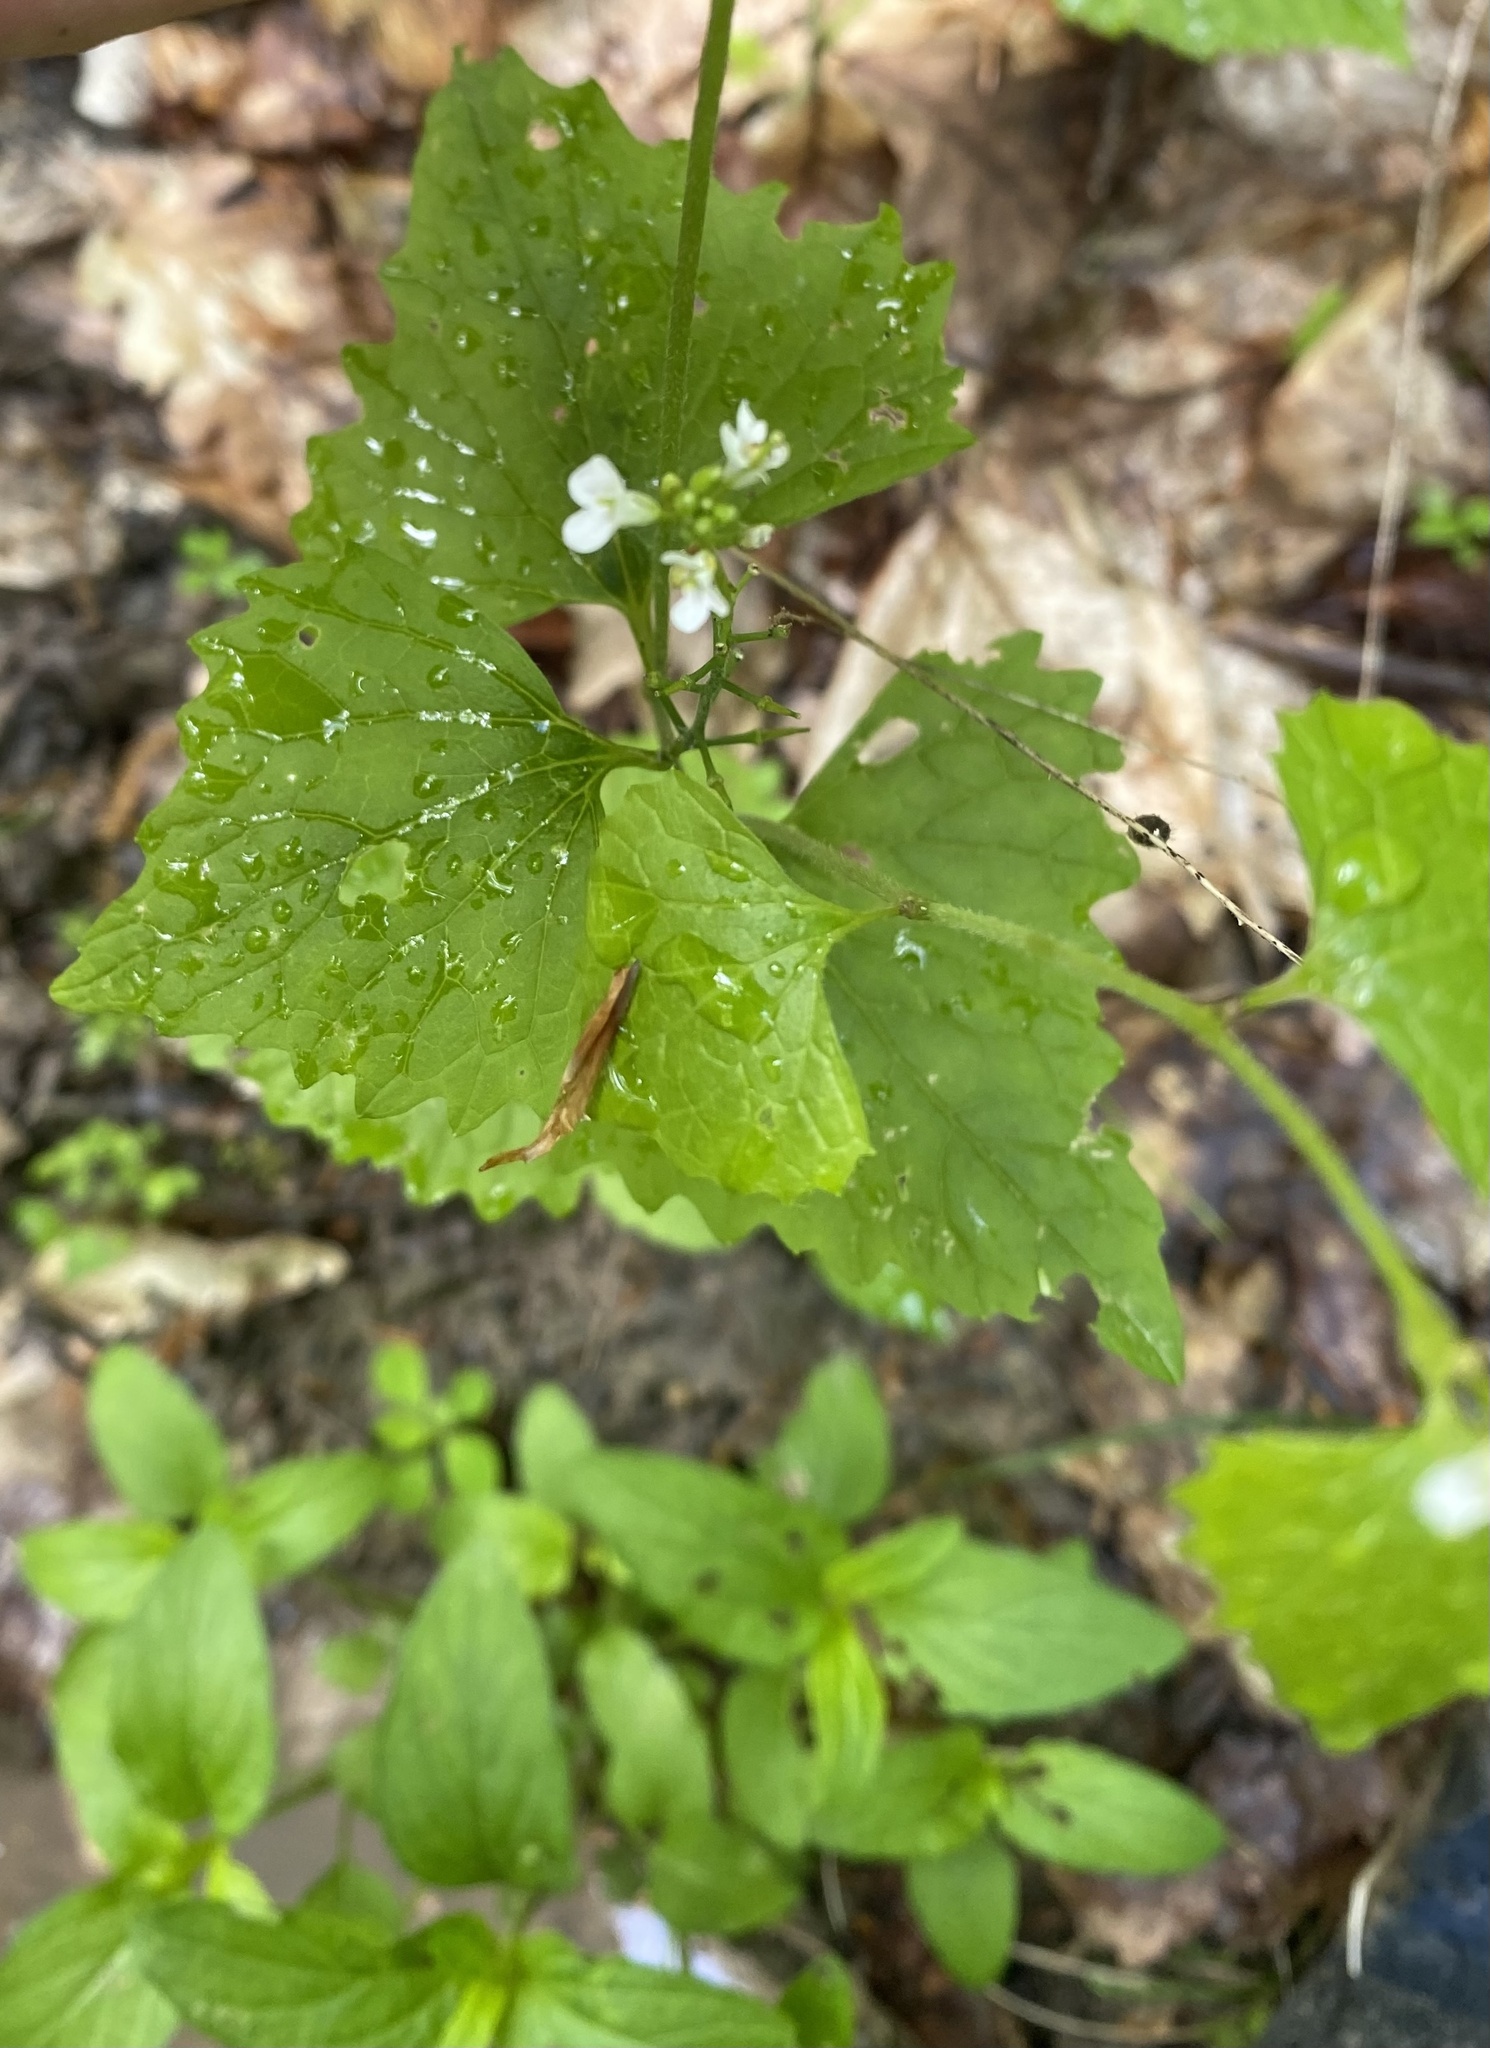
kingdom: Plantae
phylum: Tracheophyta
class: Magnoliopsida
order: Brassicales
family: Brassicaceae
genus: Alliaria
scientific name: Alliaria petiolata
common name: Garlic mustard
